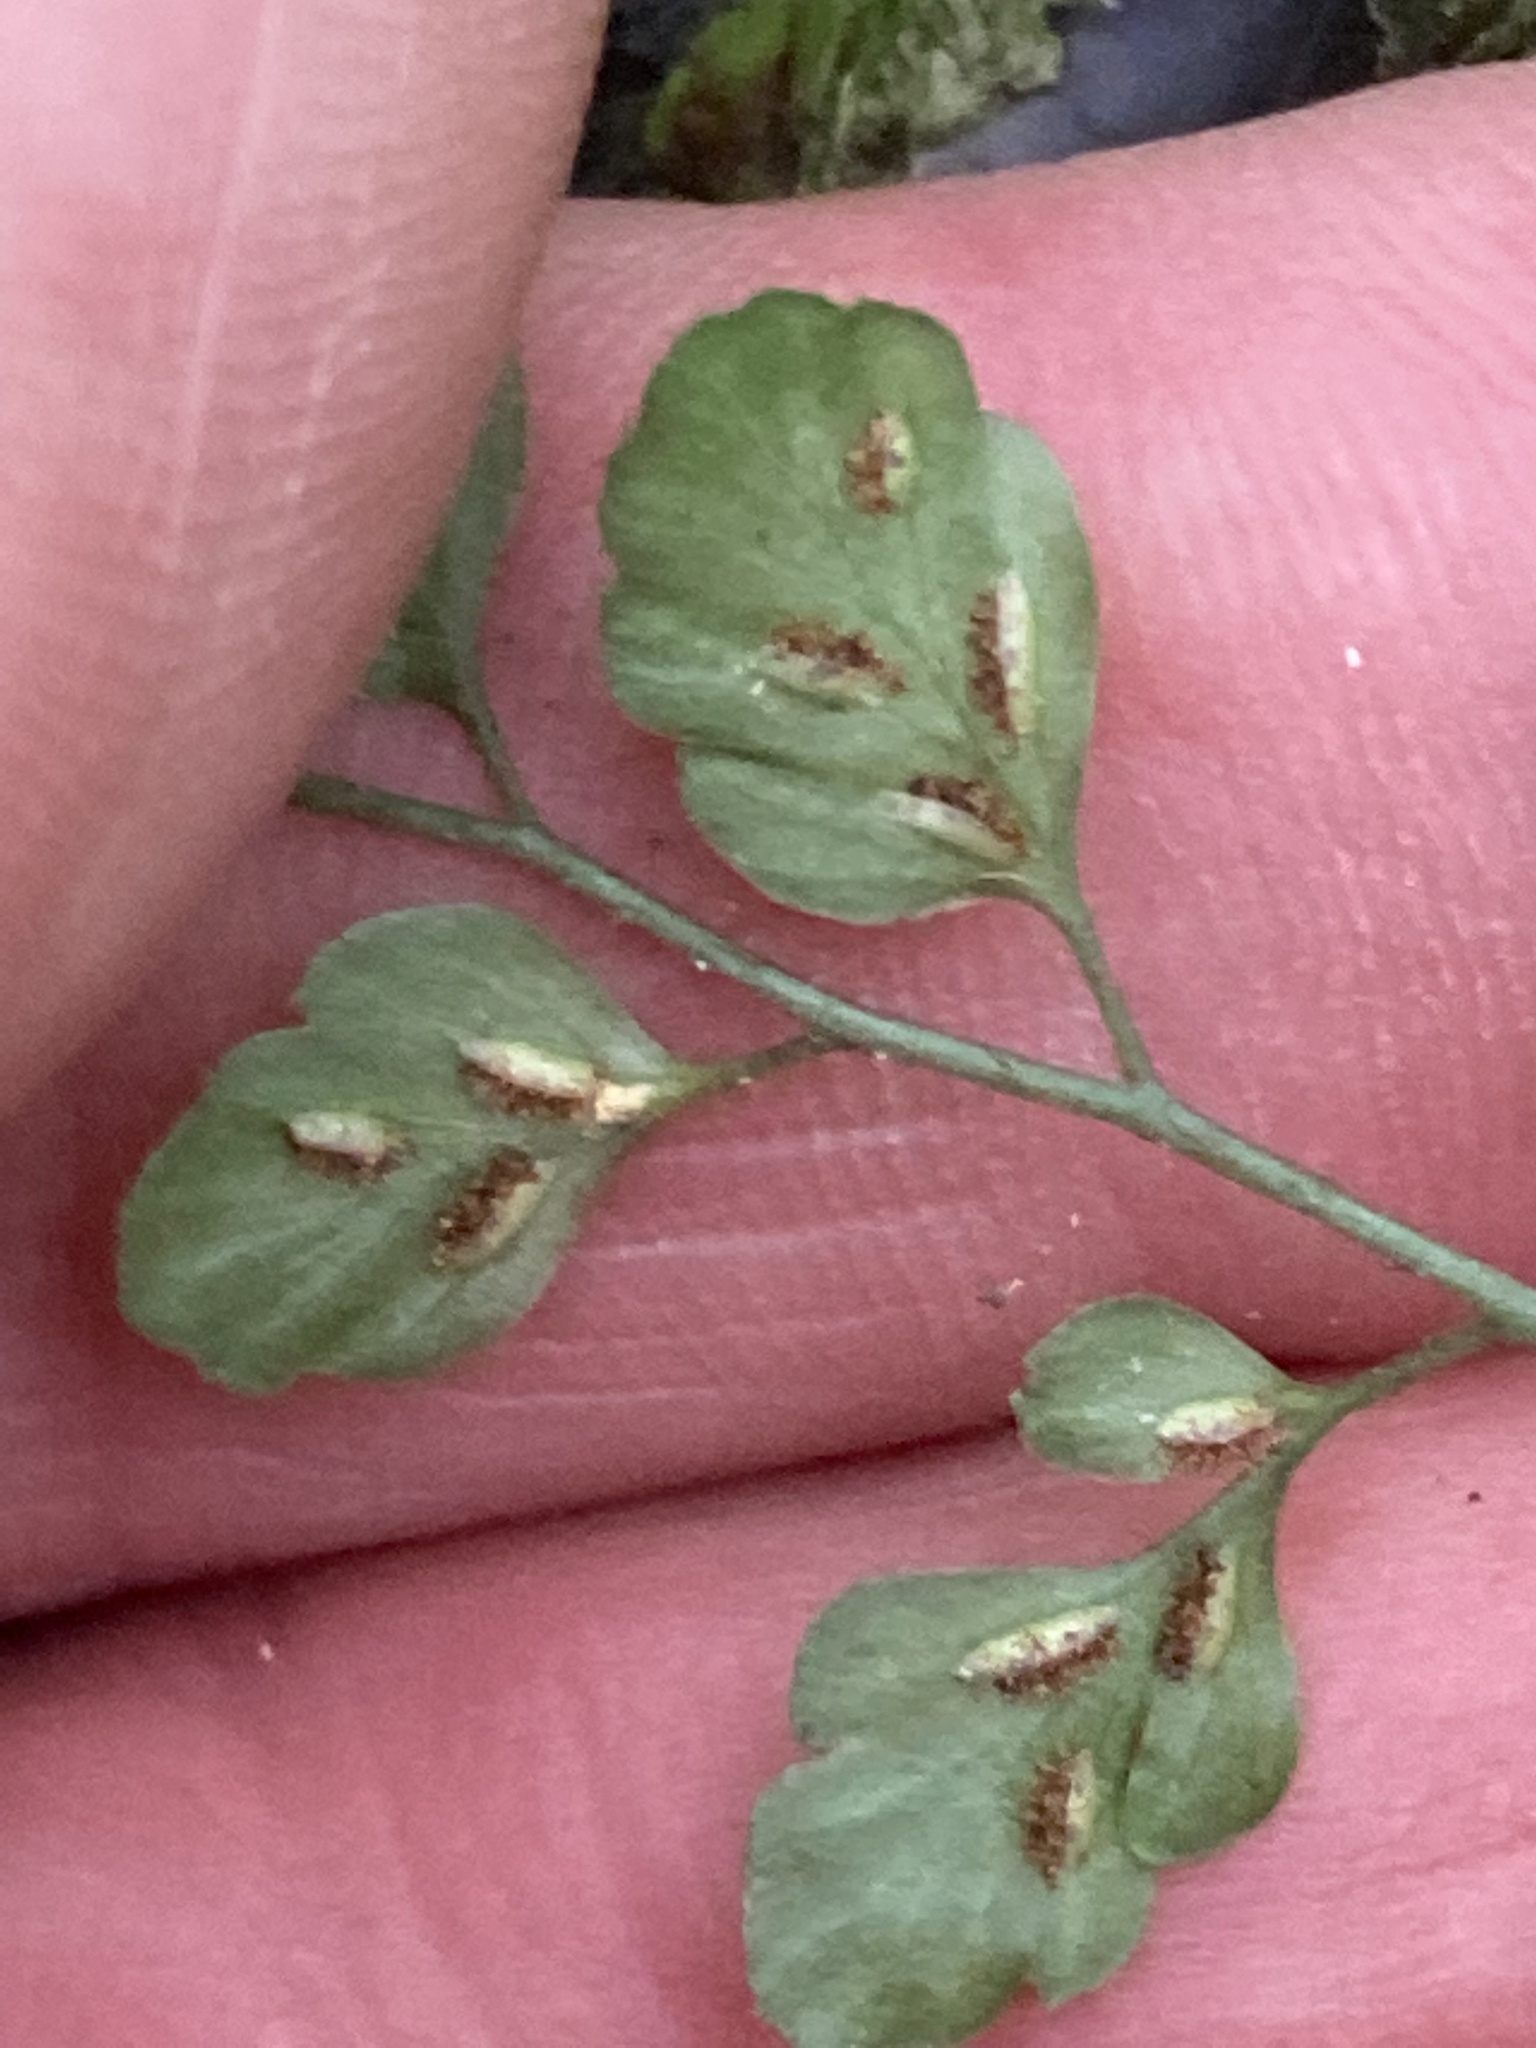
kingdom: Plantae
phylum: Tracheophyta
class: Polypodiopsida
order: Polypodiales
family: Aspleniaceae
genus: Asplenium
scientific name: Asplenium hookerianum
